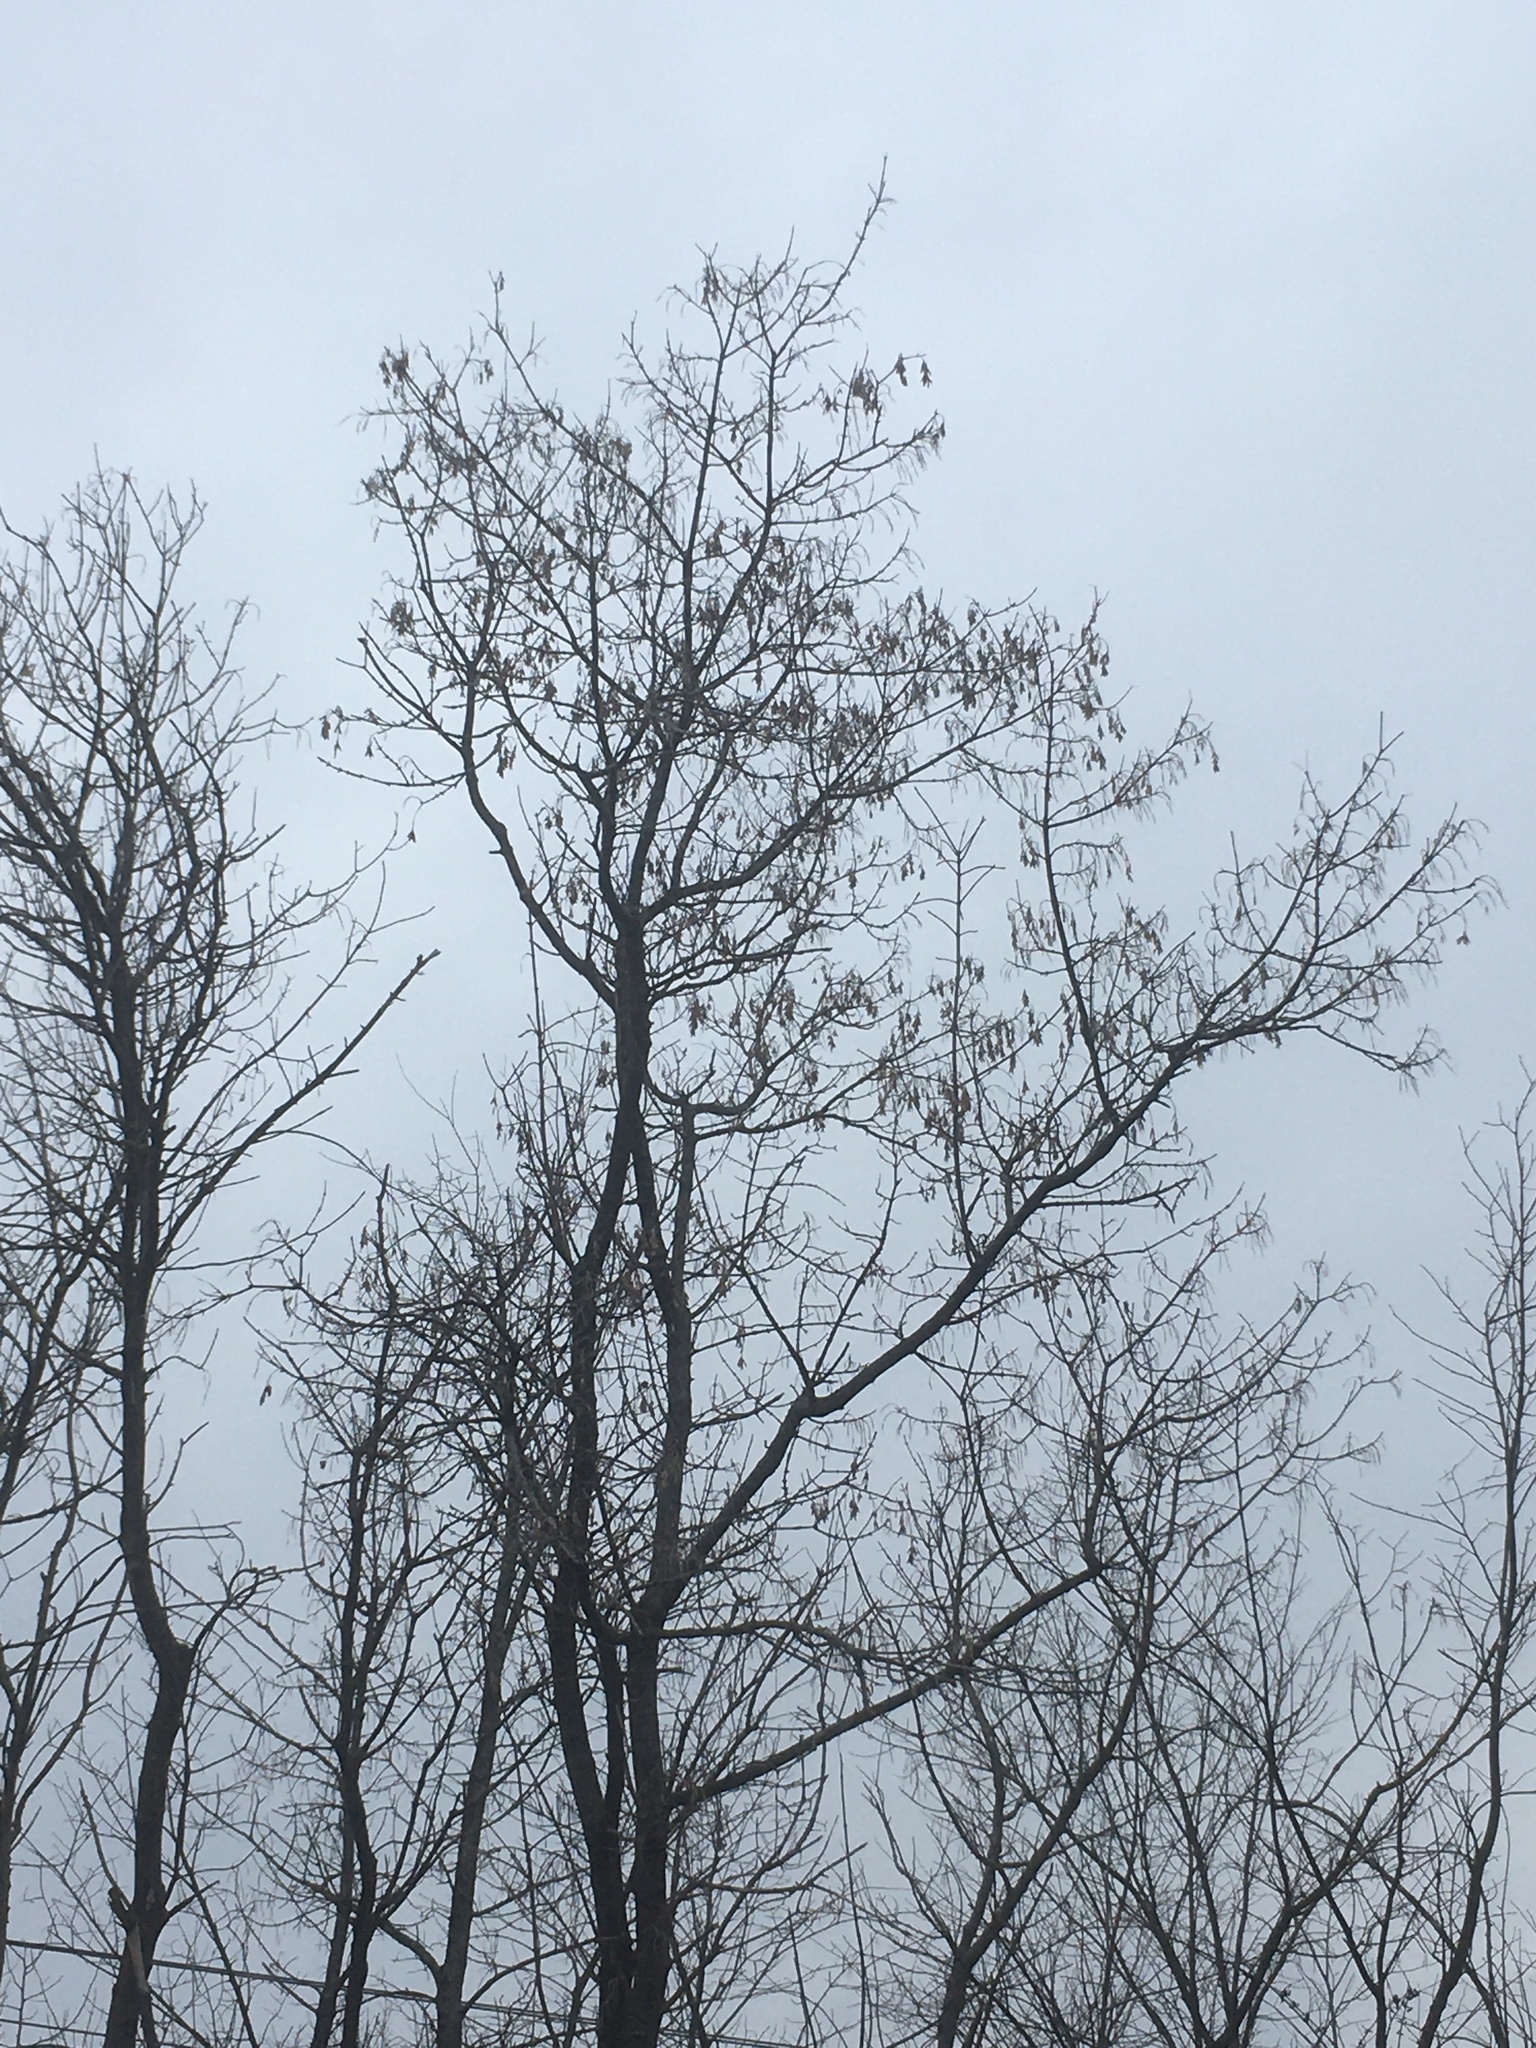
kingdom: Plantae
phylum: Tracheophyta
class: Magnoliopsida
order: Sapindales
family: Sapindaceae
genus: Acer
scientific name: Acer negundo
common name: Ashleaf maple
